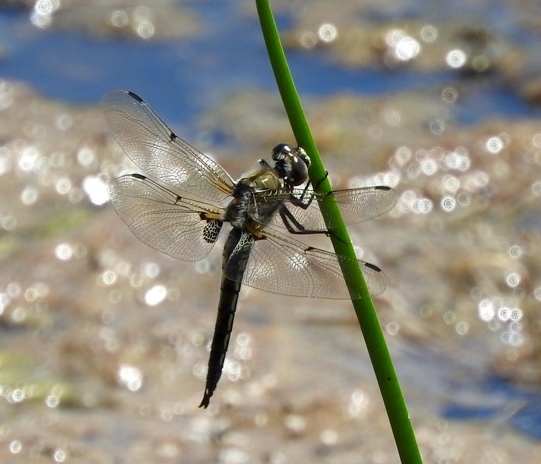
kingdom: Animalia
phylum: Arthropoda
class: Insecta
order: Odonata
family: Libellulidae
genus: Libellula
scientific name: Libellula quadrimaculata
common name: Four-spotted chaser
